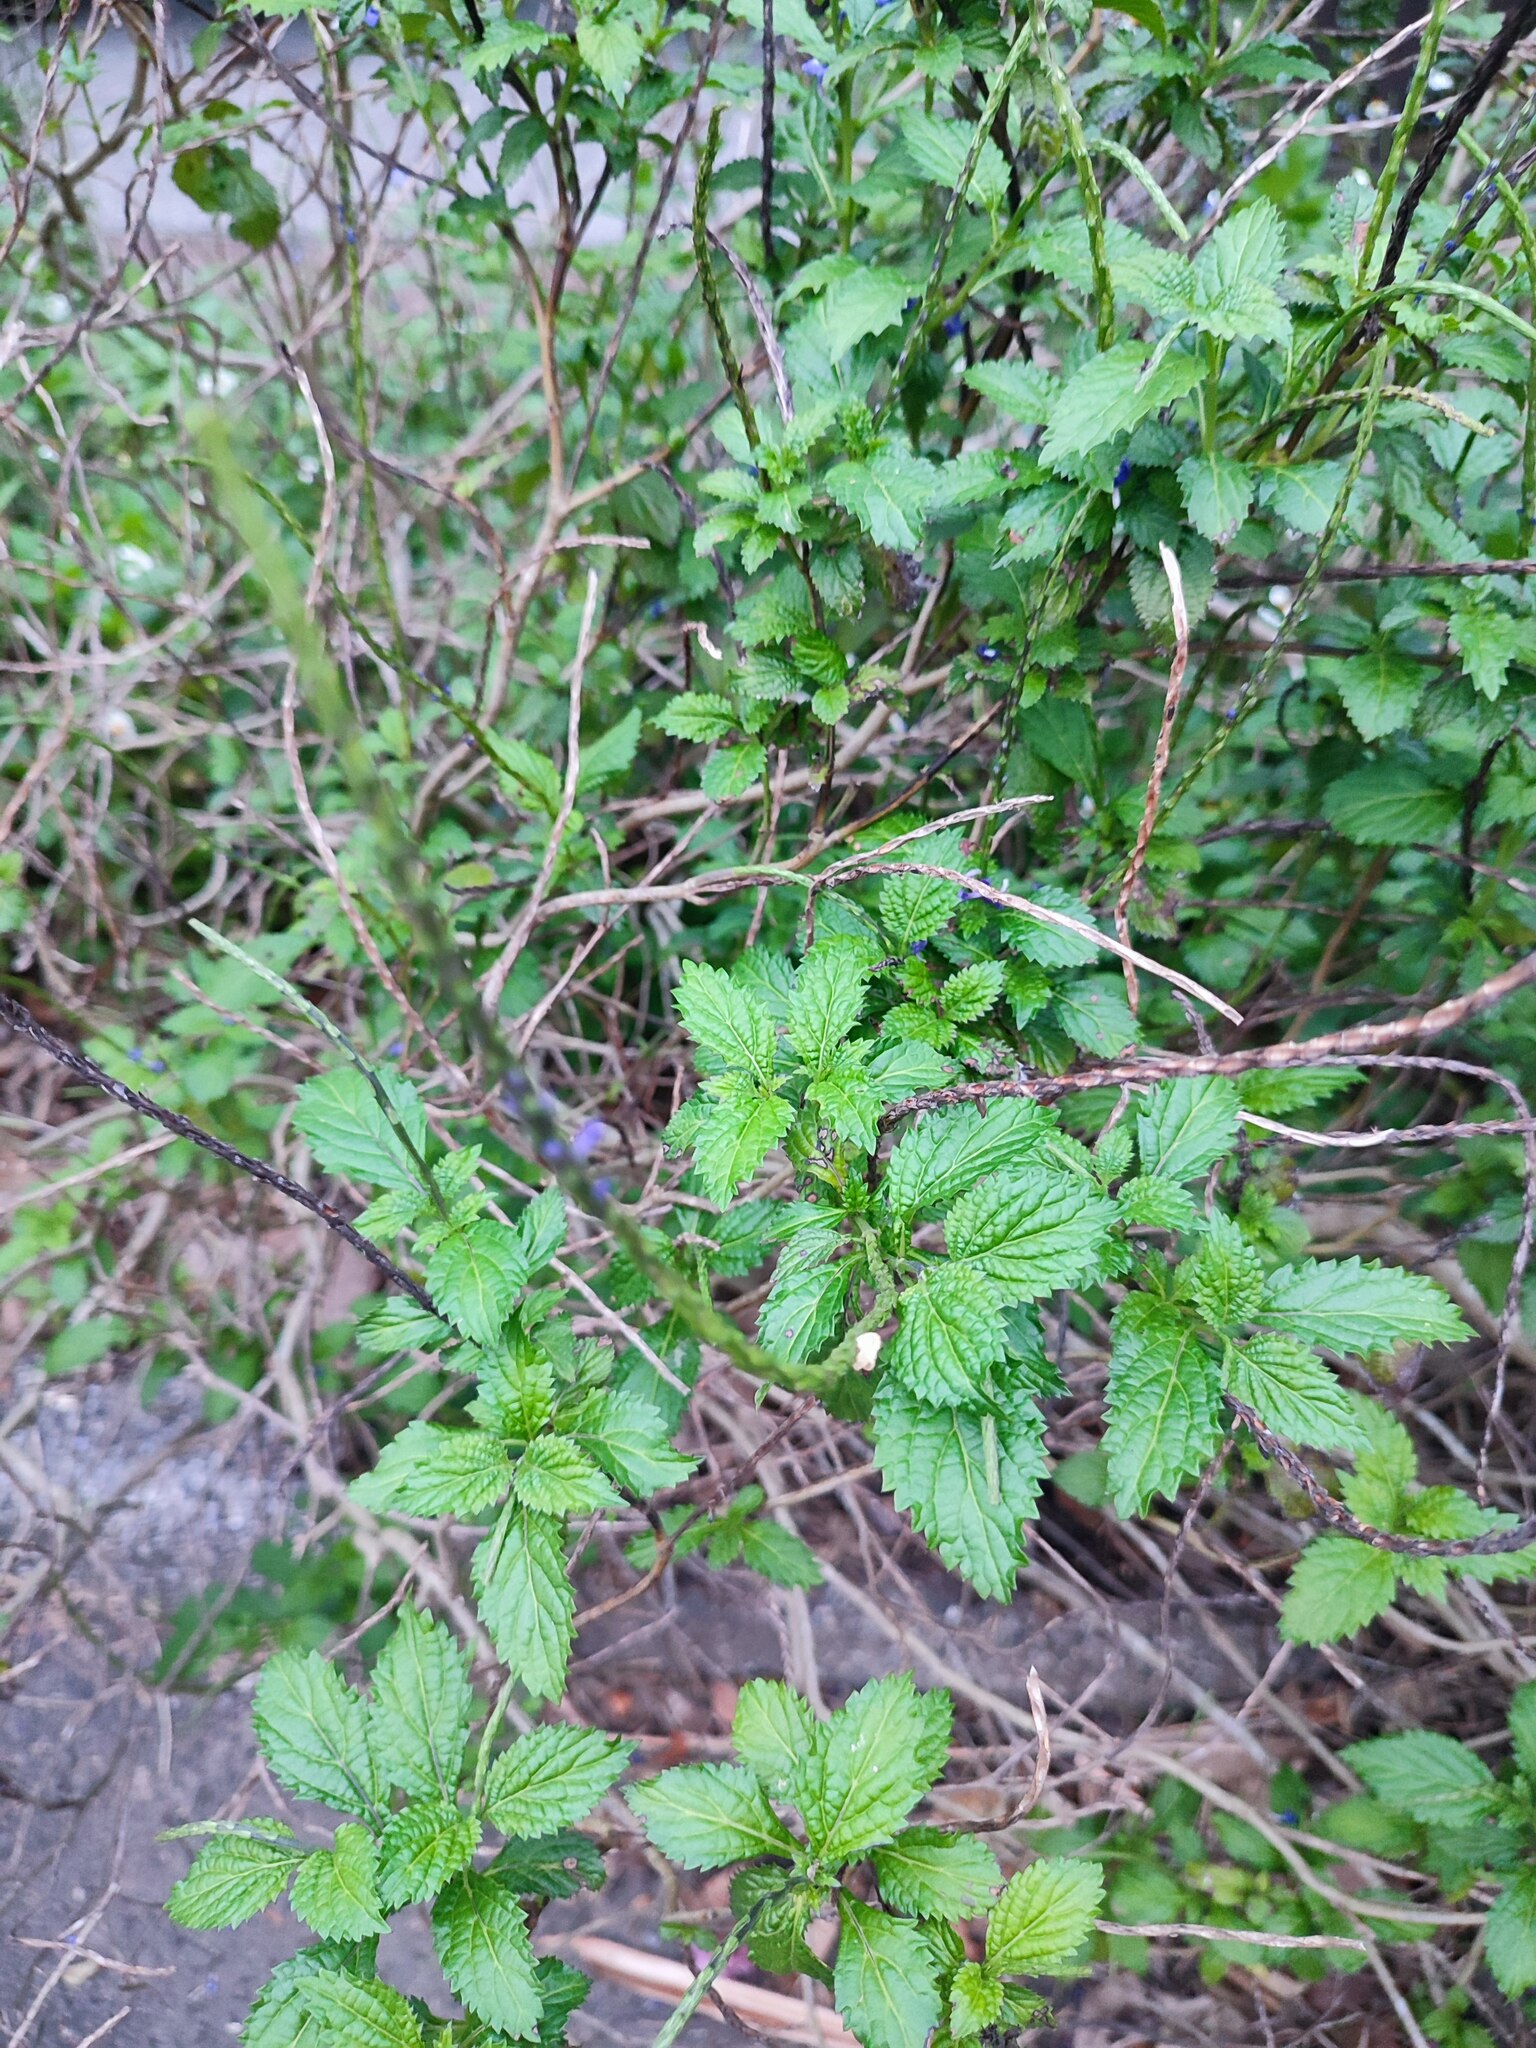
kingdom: Plantae
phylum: Tracheophyta
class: Magnoliopsida
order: Lamiales
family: Verbenaceae
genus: Stachytarpheta
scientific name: Stachytarpheta urticifolia
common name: Nettleleaf velvetberry
